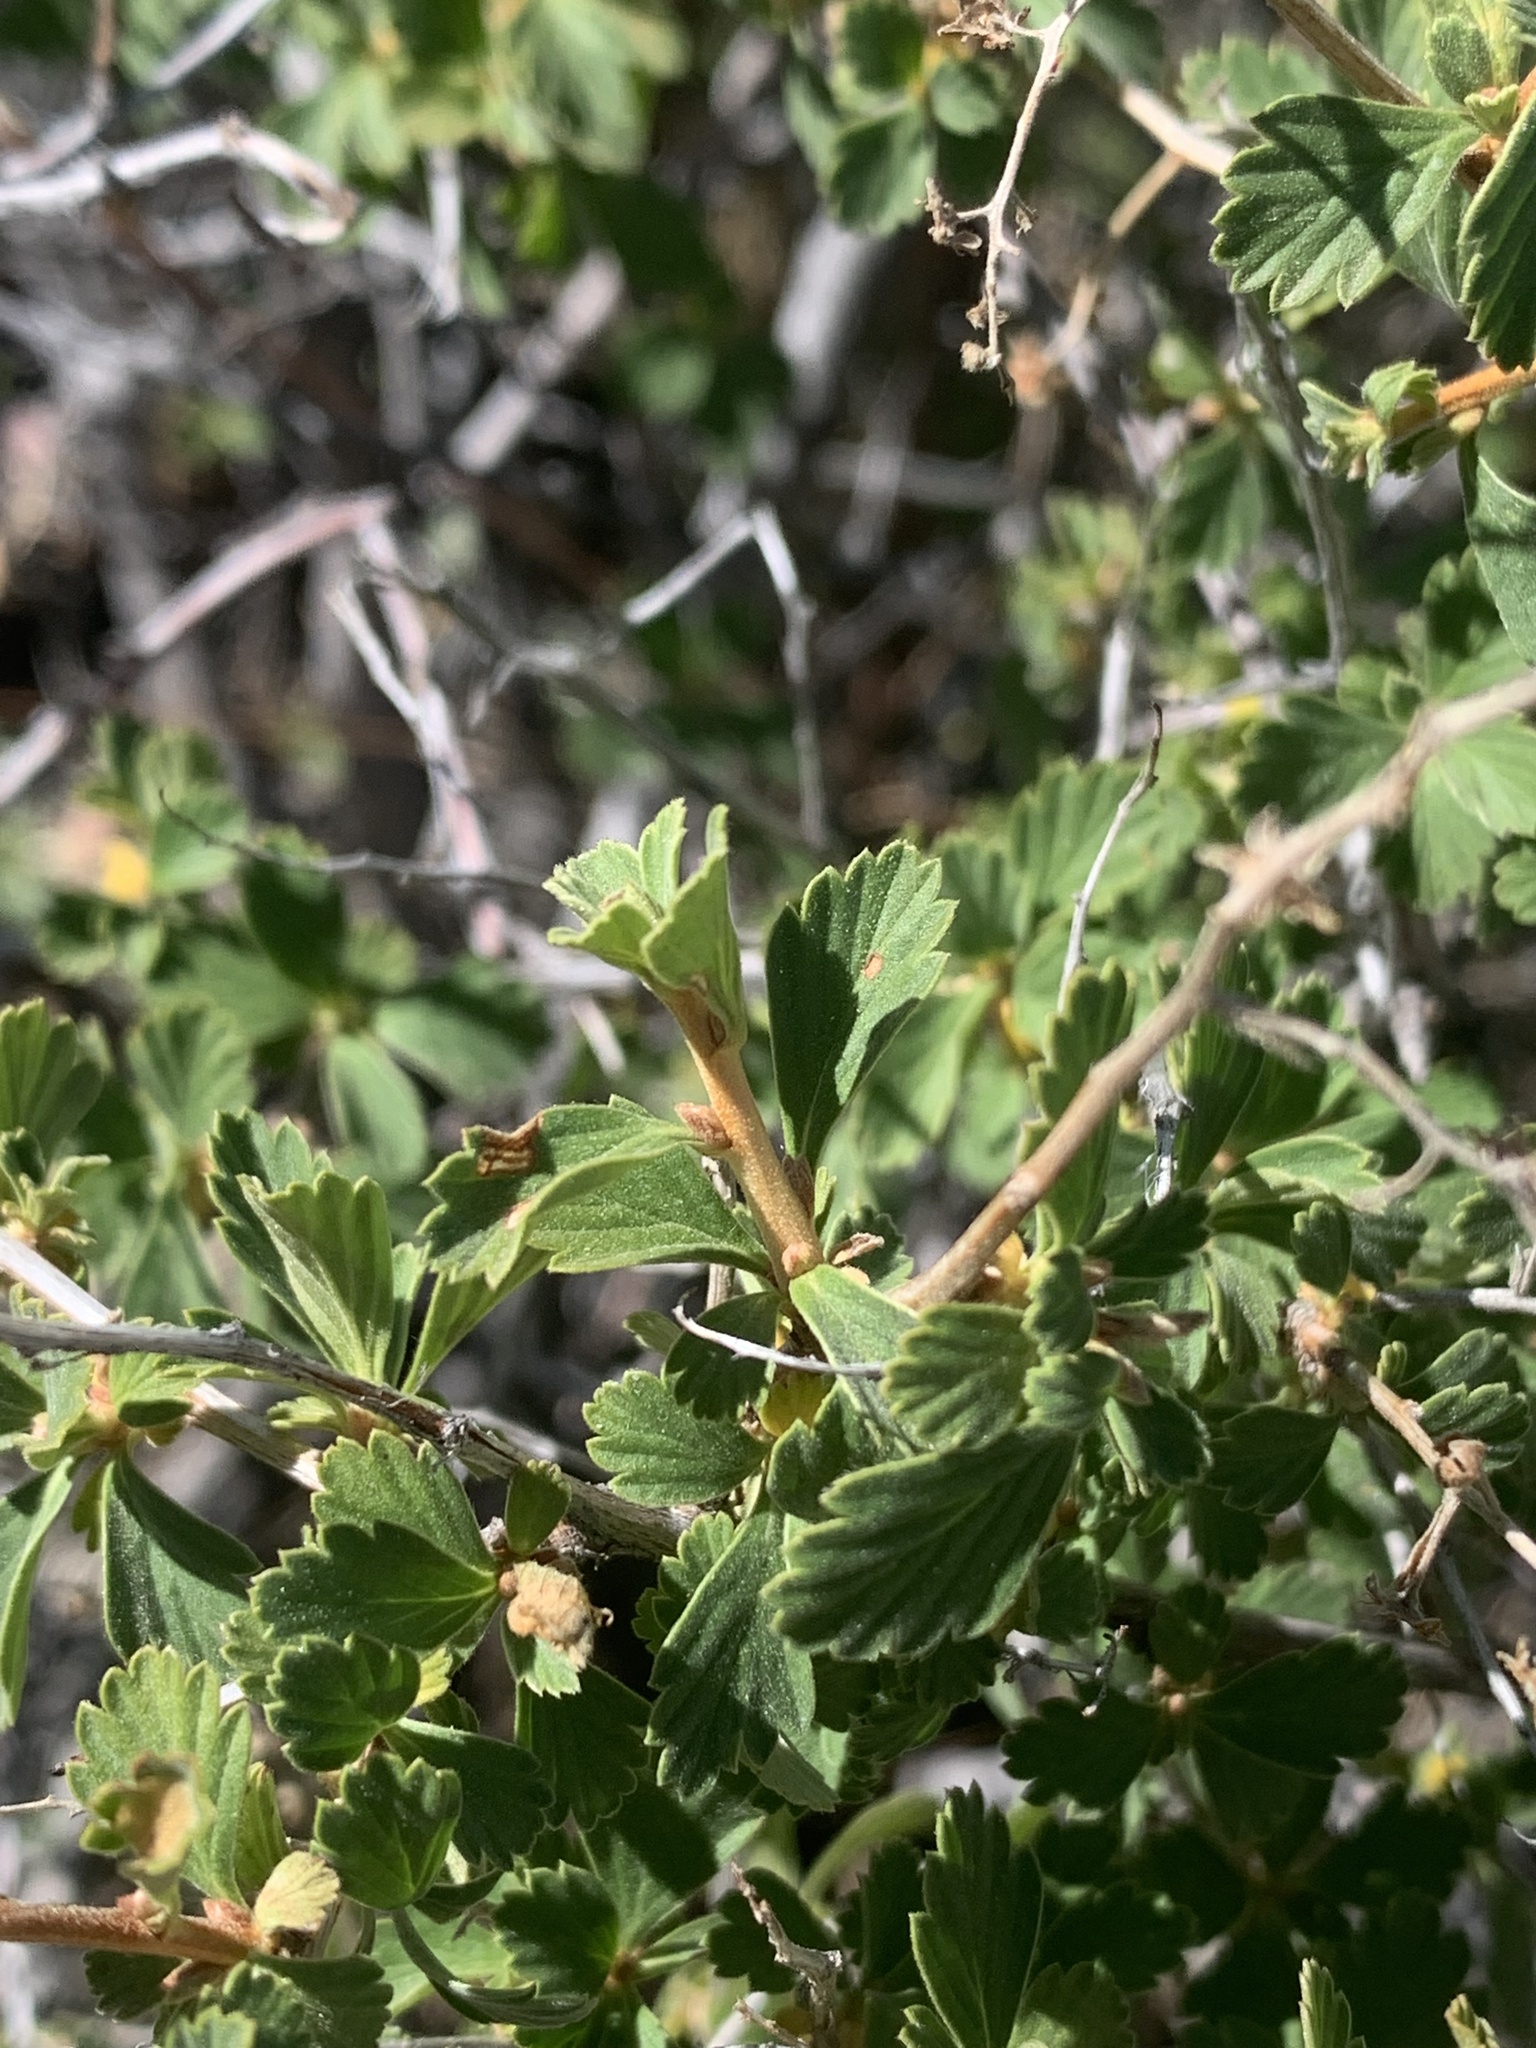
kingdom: Plantae
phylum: Tracheophyta
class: Magnoliopsida
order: Rosales
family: Rosaceae
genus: Holodiscus
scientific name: Holodiscus discolor
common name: Oceanspray
